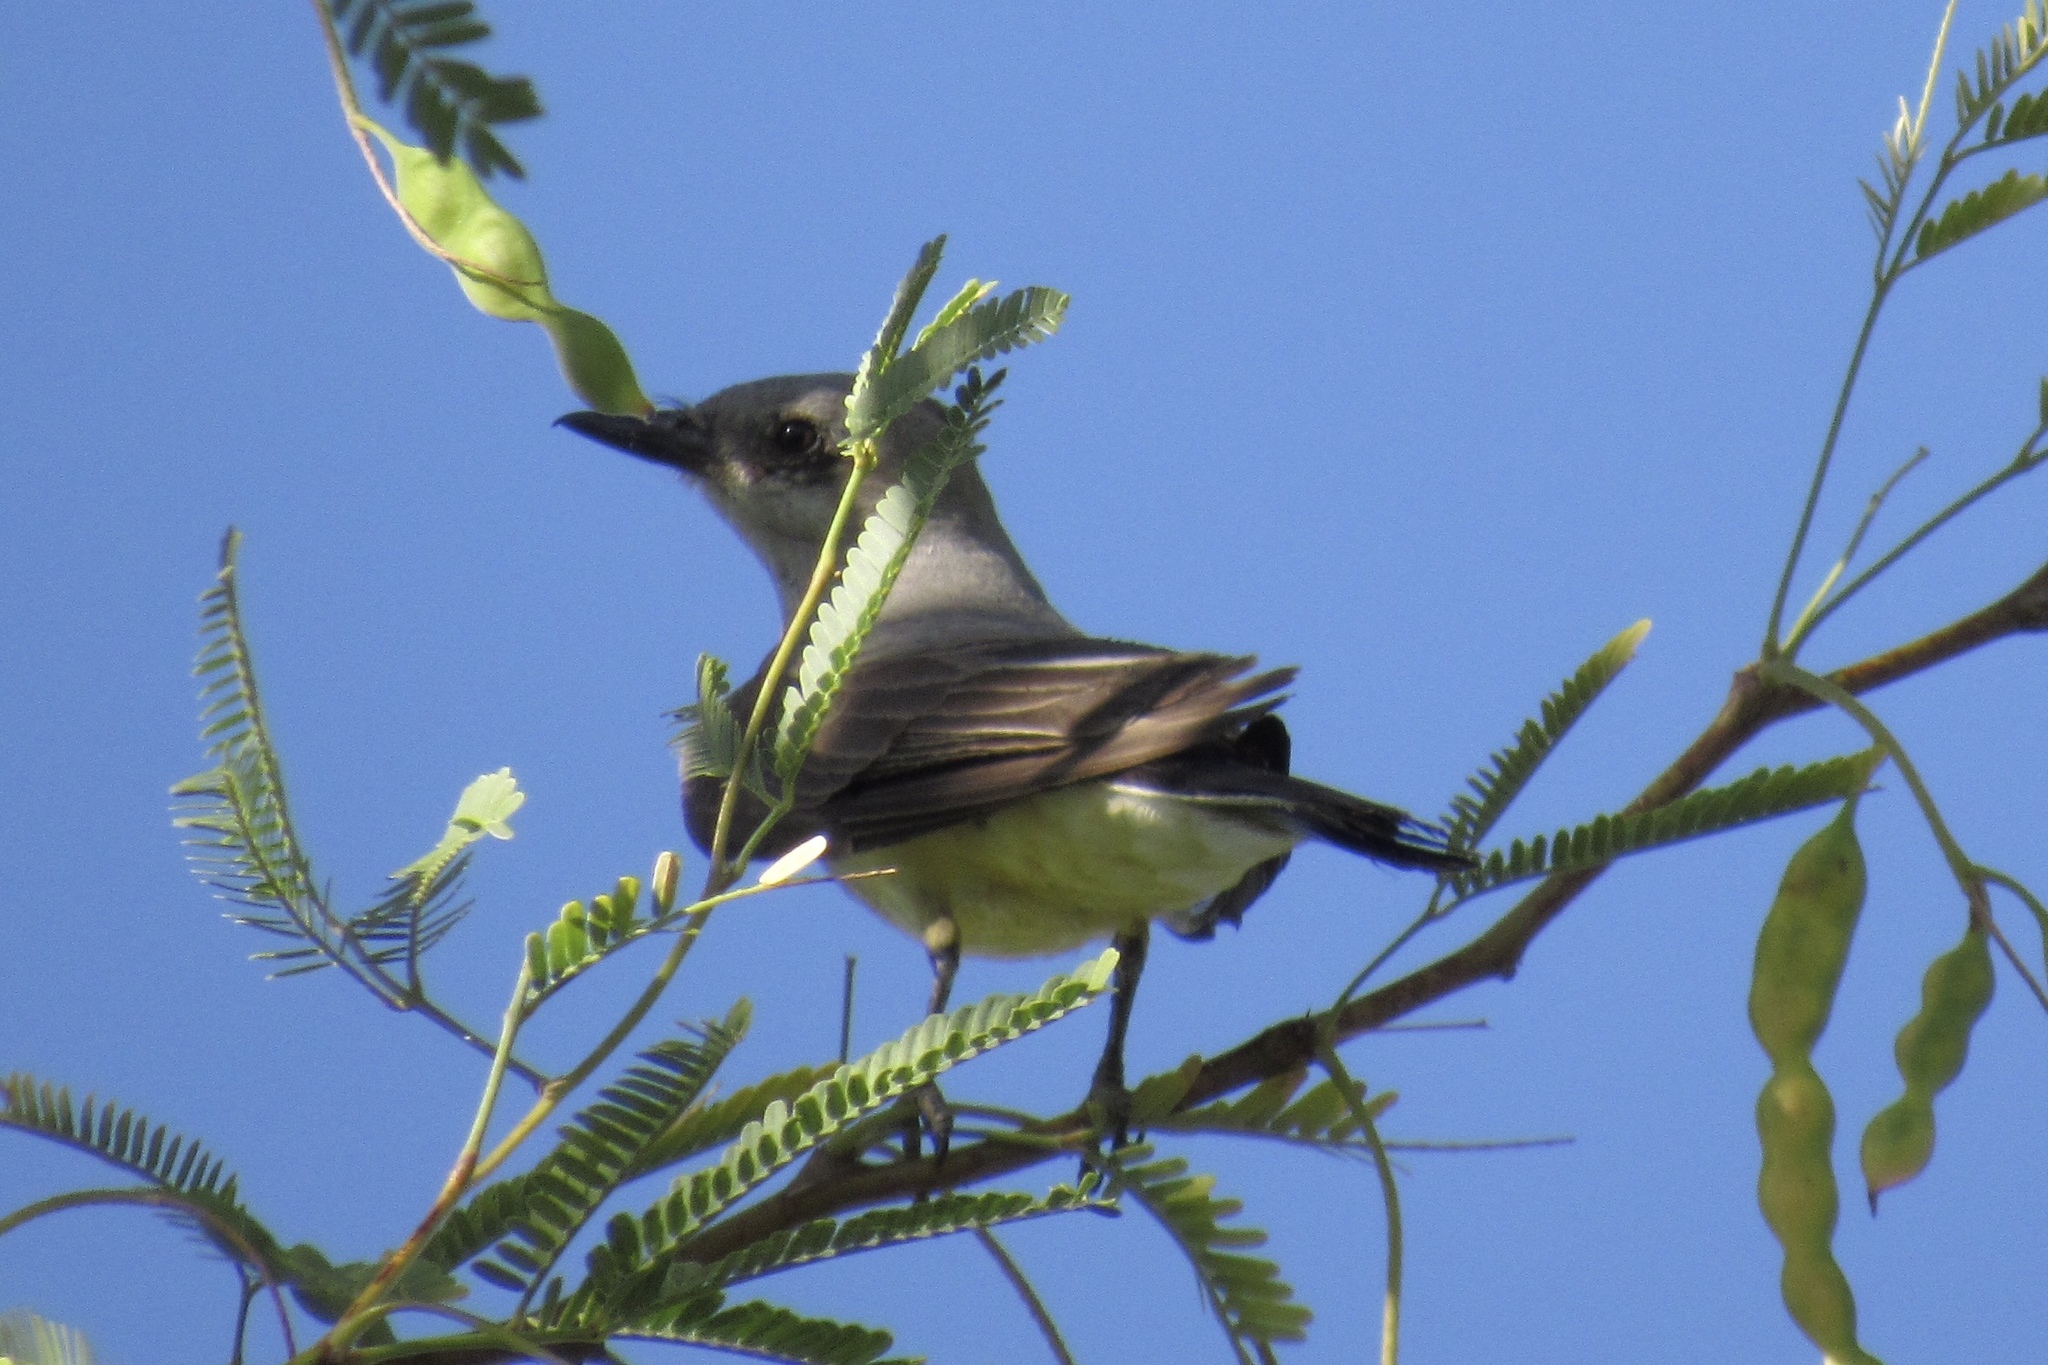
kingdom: Animalia
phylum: Chordata
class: Aves
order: Passeriformes
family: Tyrannidae
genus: Tyrannus
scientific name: Tyrannus verticalis
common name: Western kingbird
